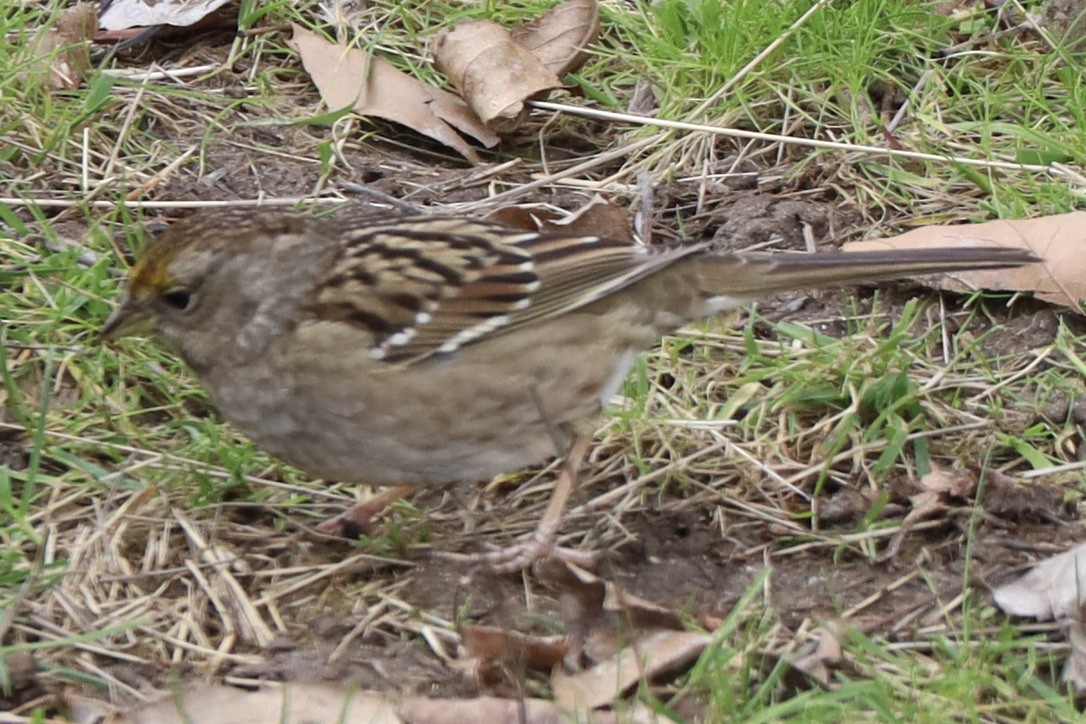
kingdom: Animalia
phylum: Chordata
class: Aves
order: Passeriformes
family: Passerellidae
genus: Zonotrichia
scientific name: Zonotrichia atricapilla
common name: Golden-crowned sparrow
